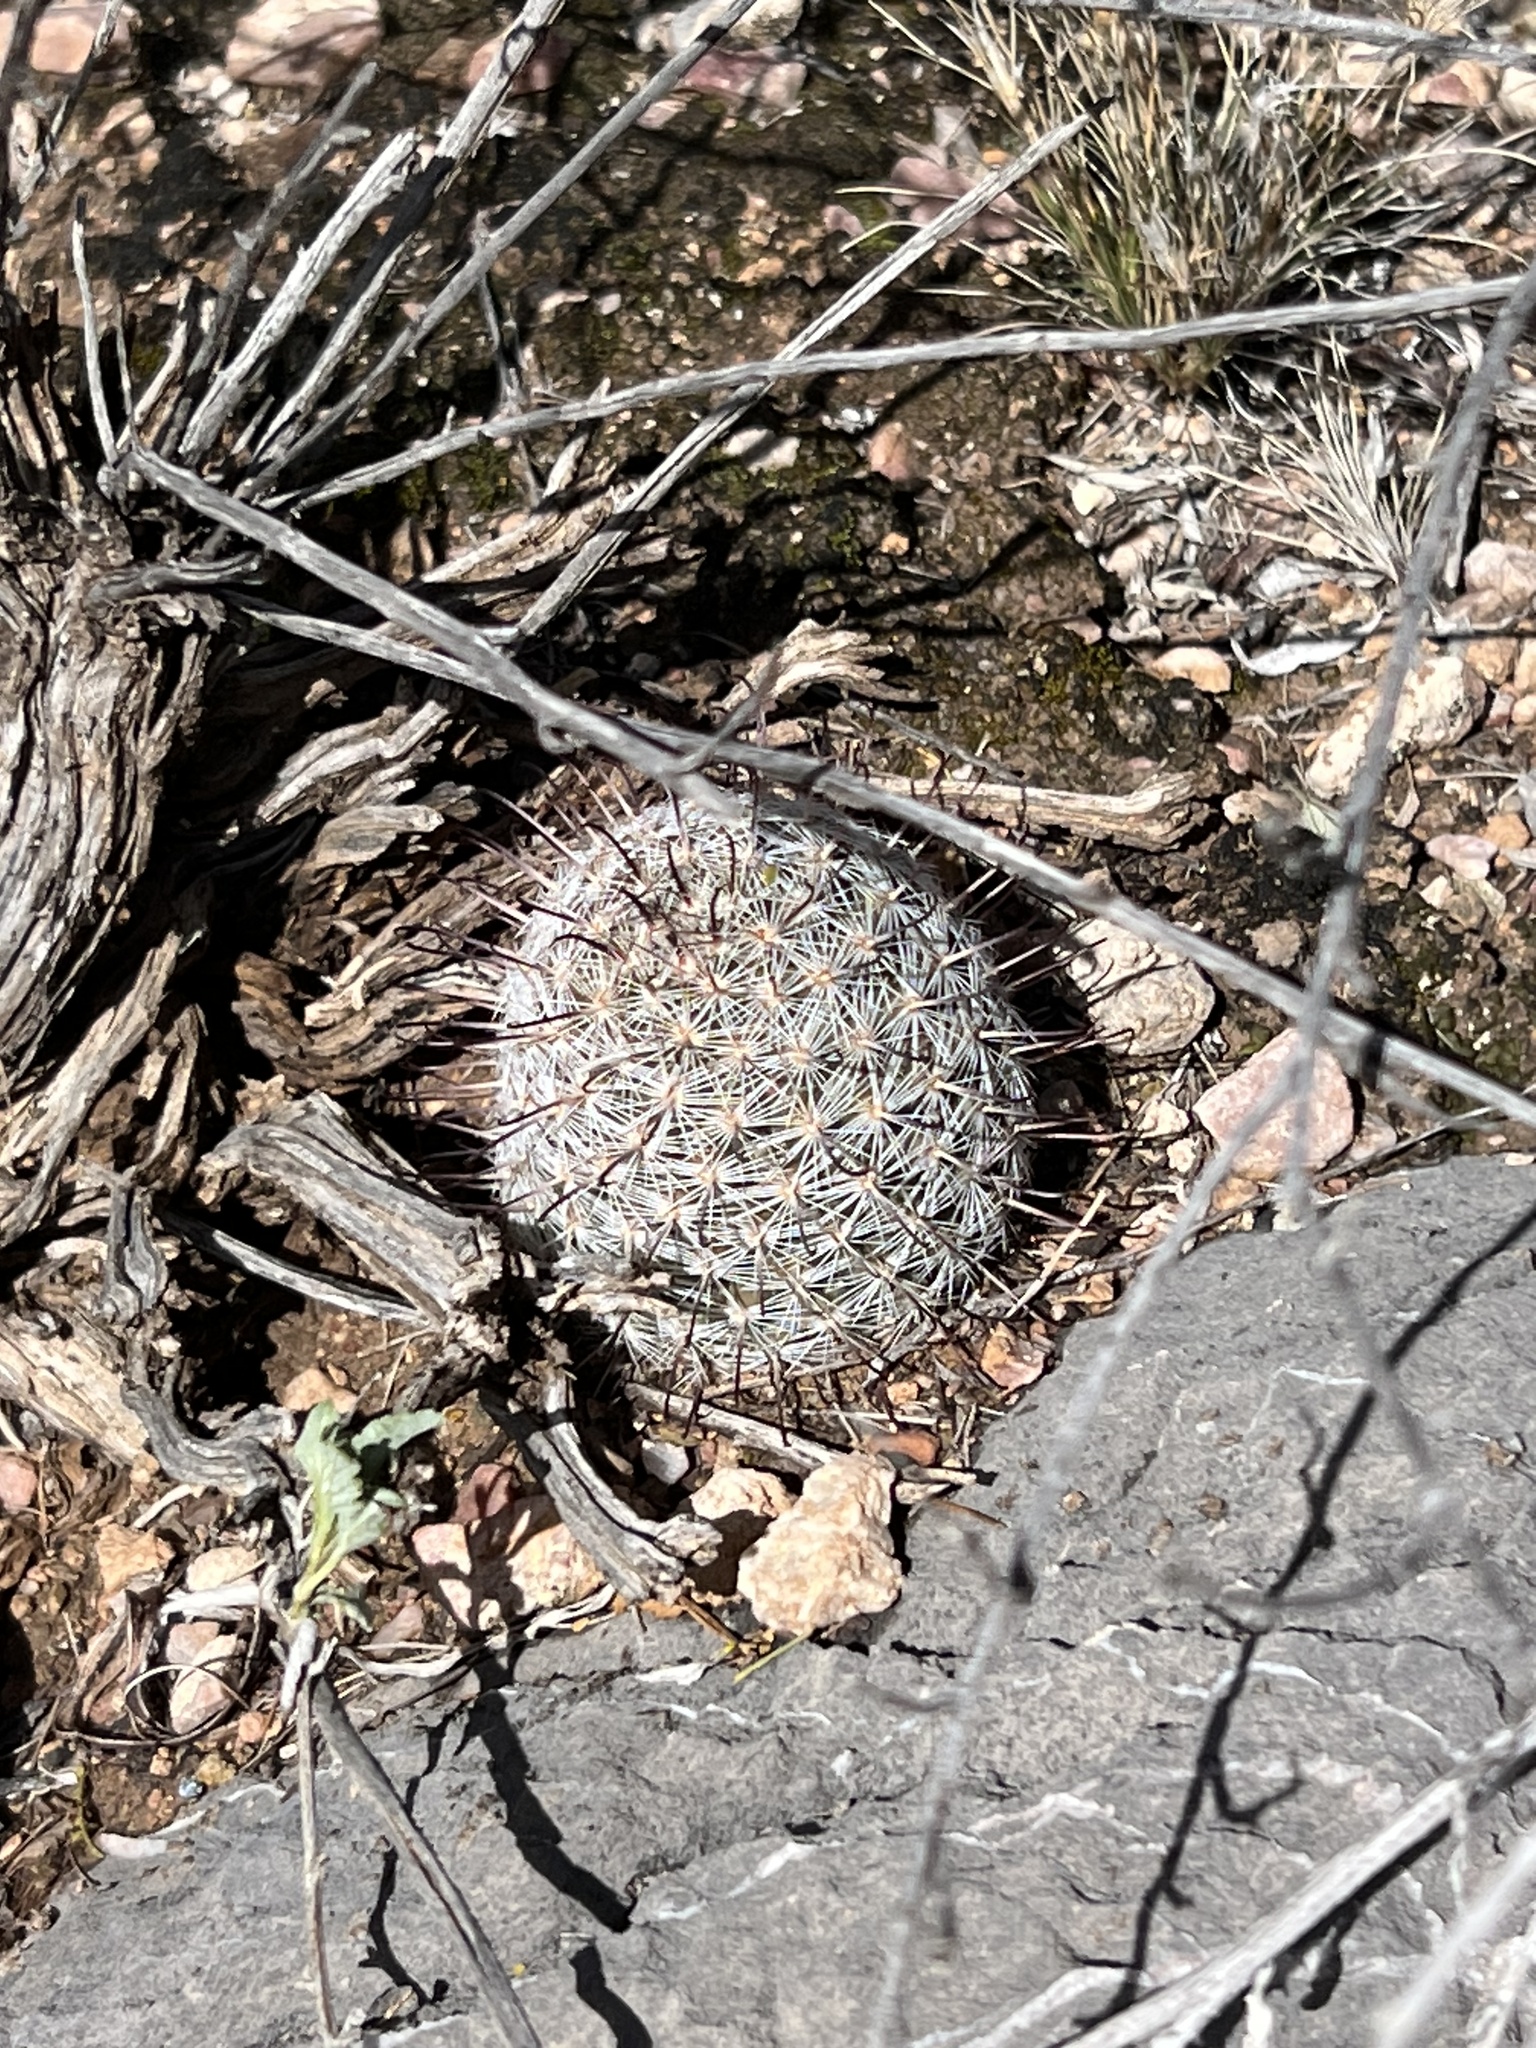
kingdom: Plantae
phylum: Tracheophyta
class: Magnoliopsida
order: Caryophyllales
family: Cactaceae
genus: Cochemiea
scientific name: Cochemiea grahamii
